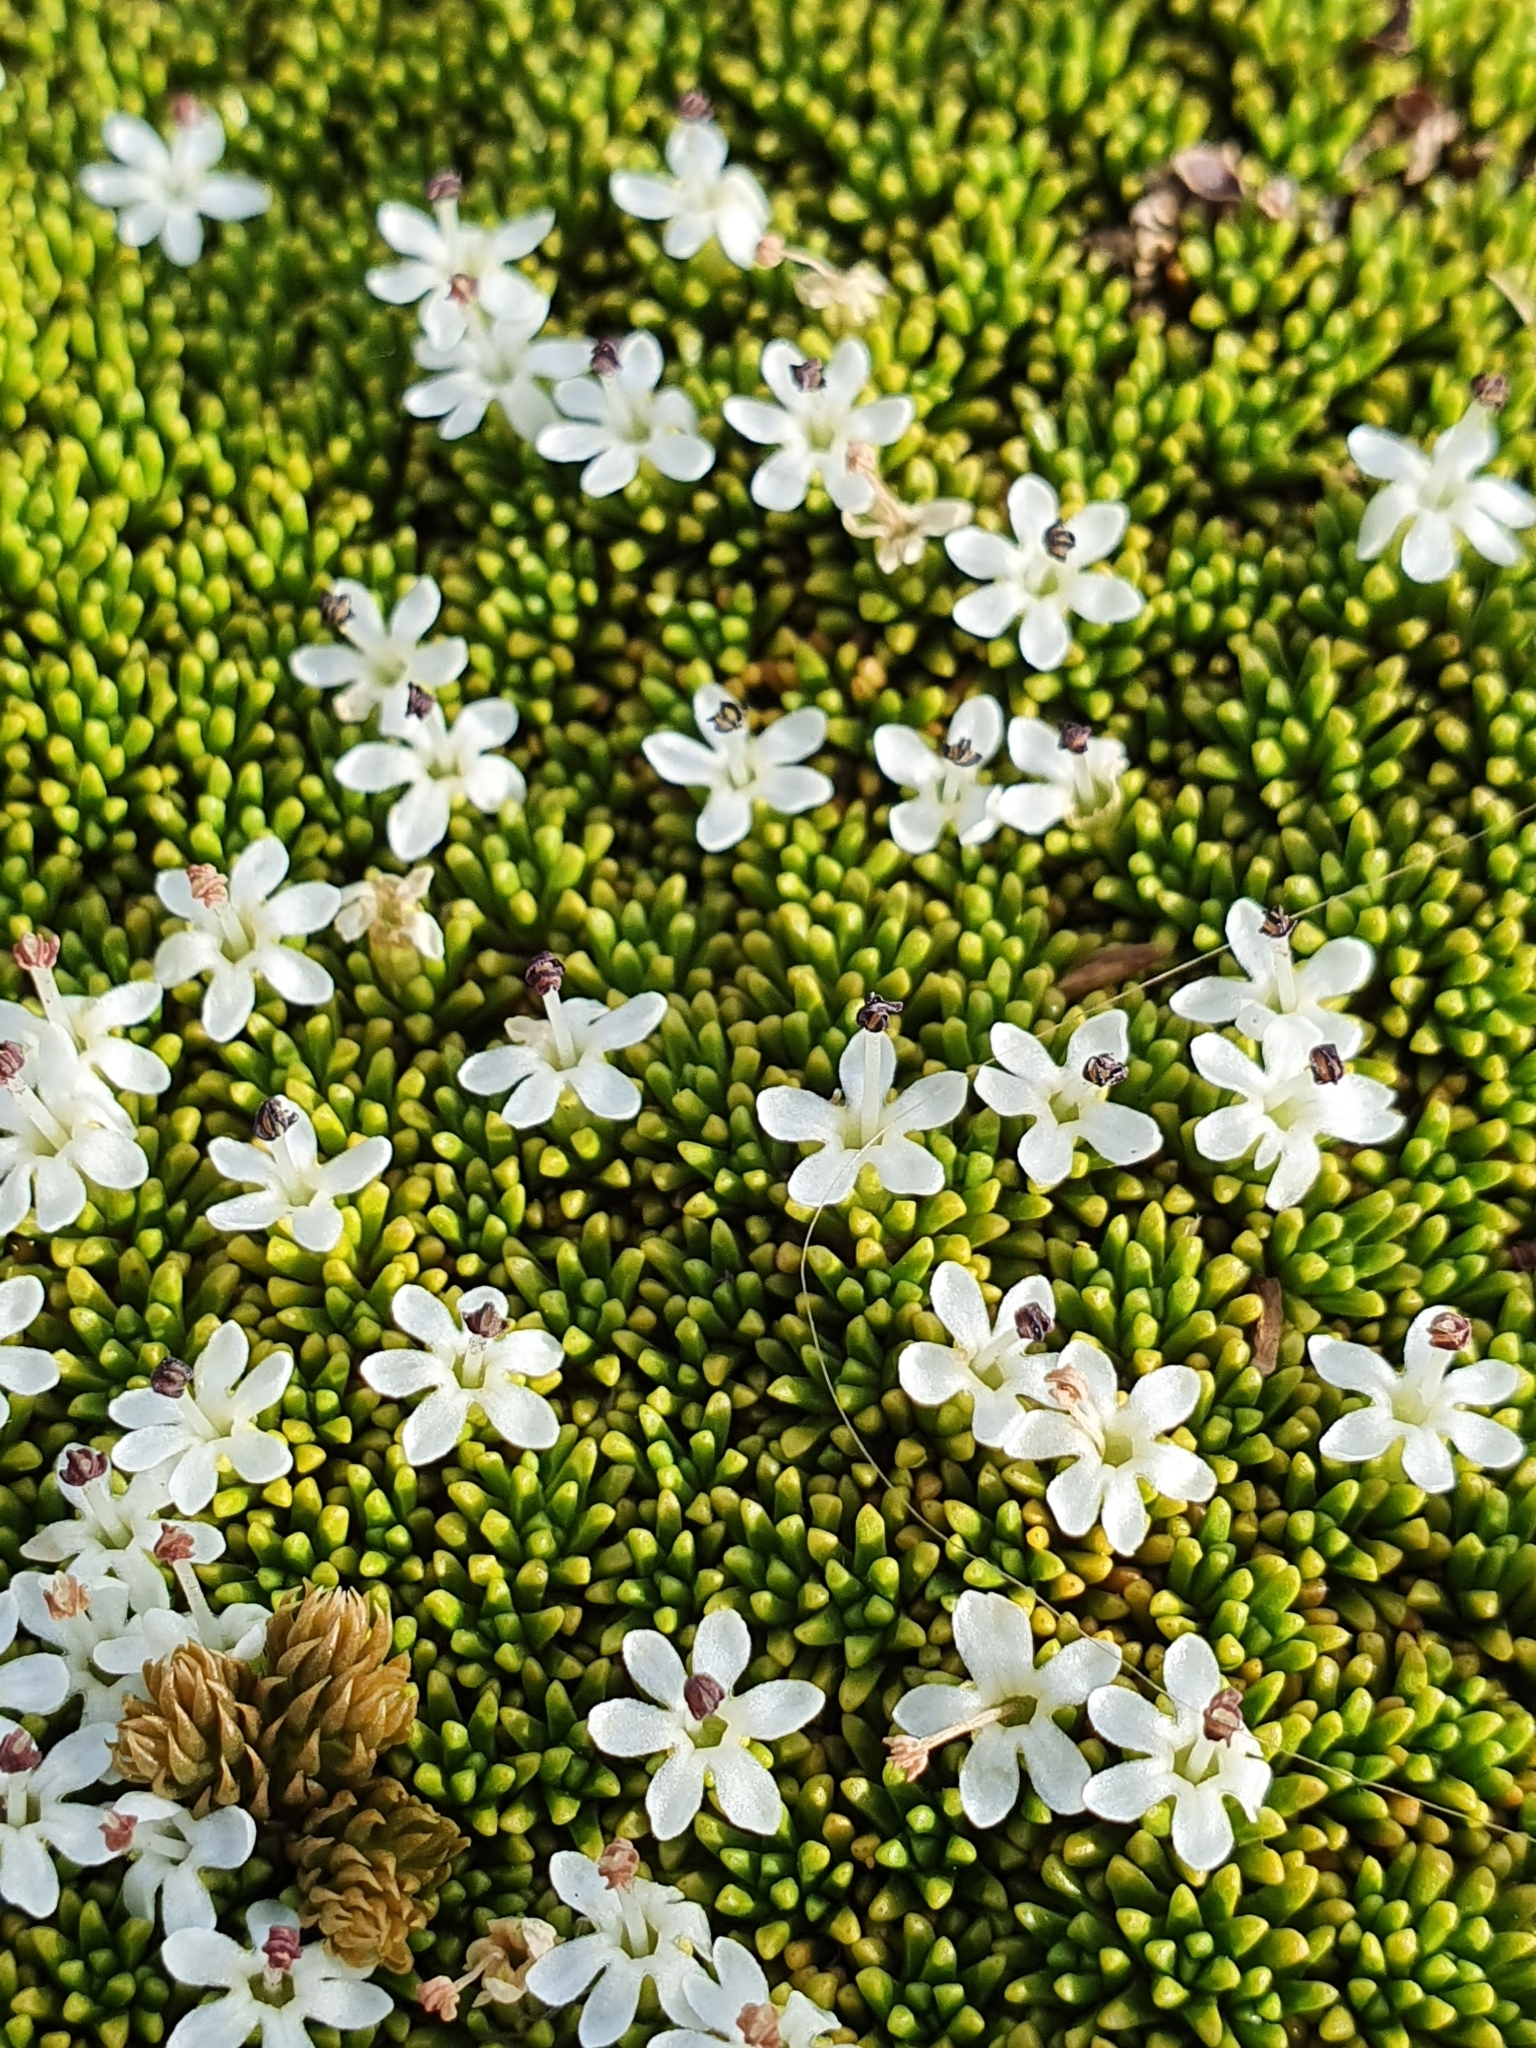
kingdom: Plantae
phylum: Tracheophyta
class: Magnoliopsida
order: Asterales
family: Stylidiaceae
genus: Phyllachne
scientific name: Phyllachne colensoi
